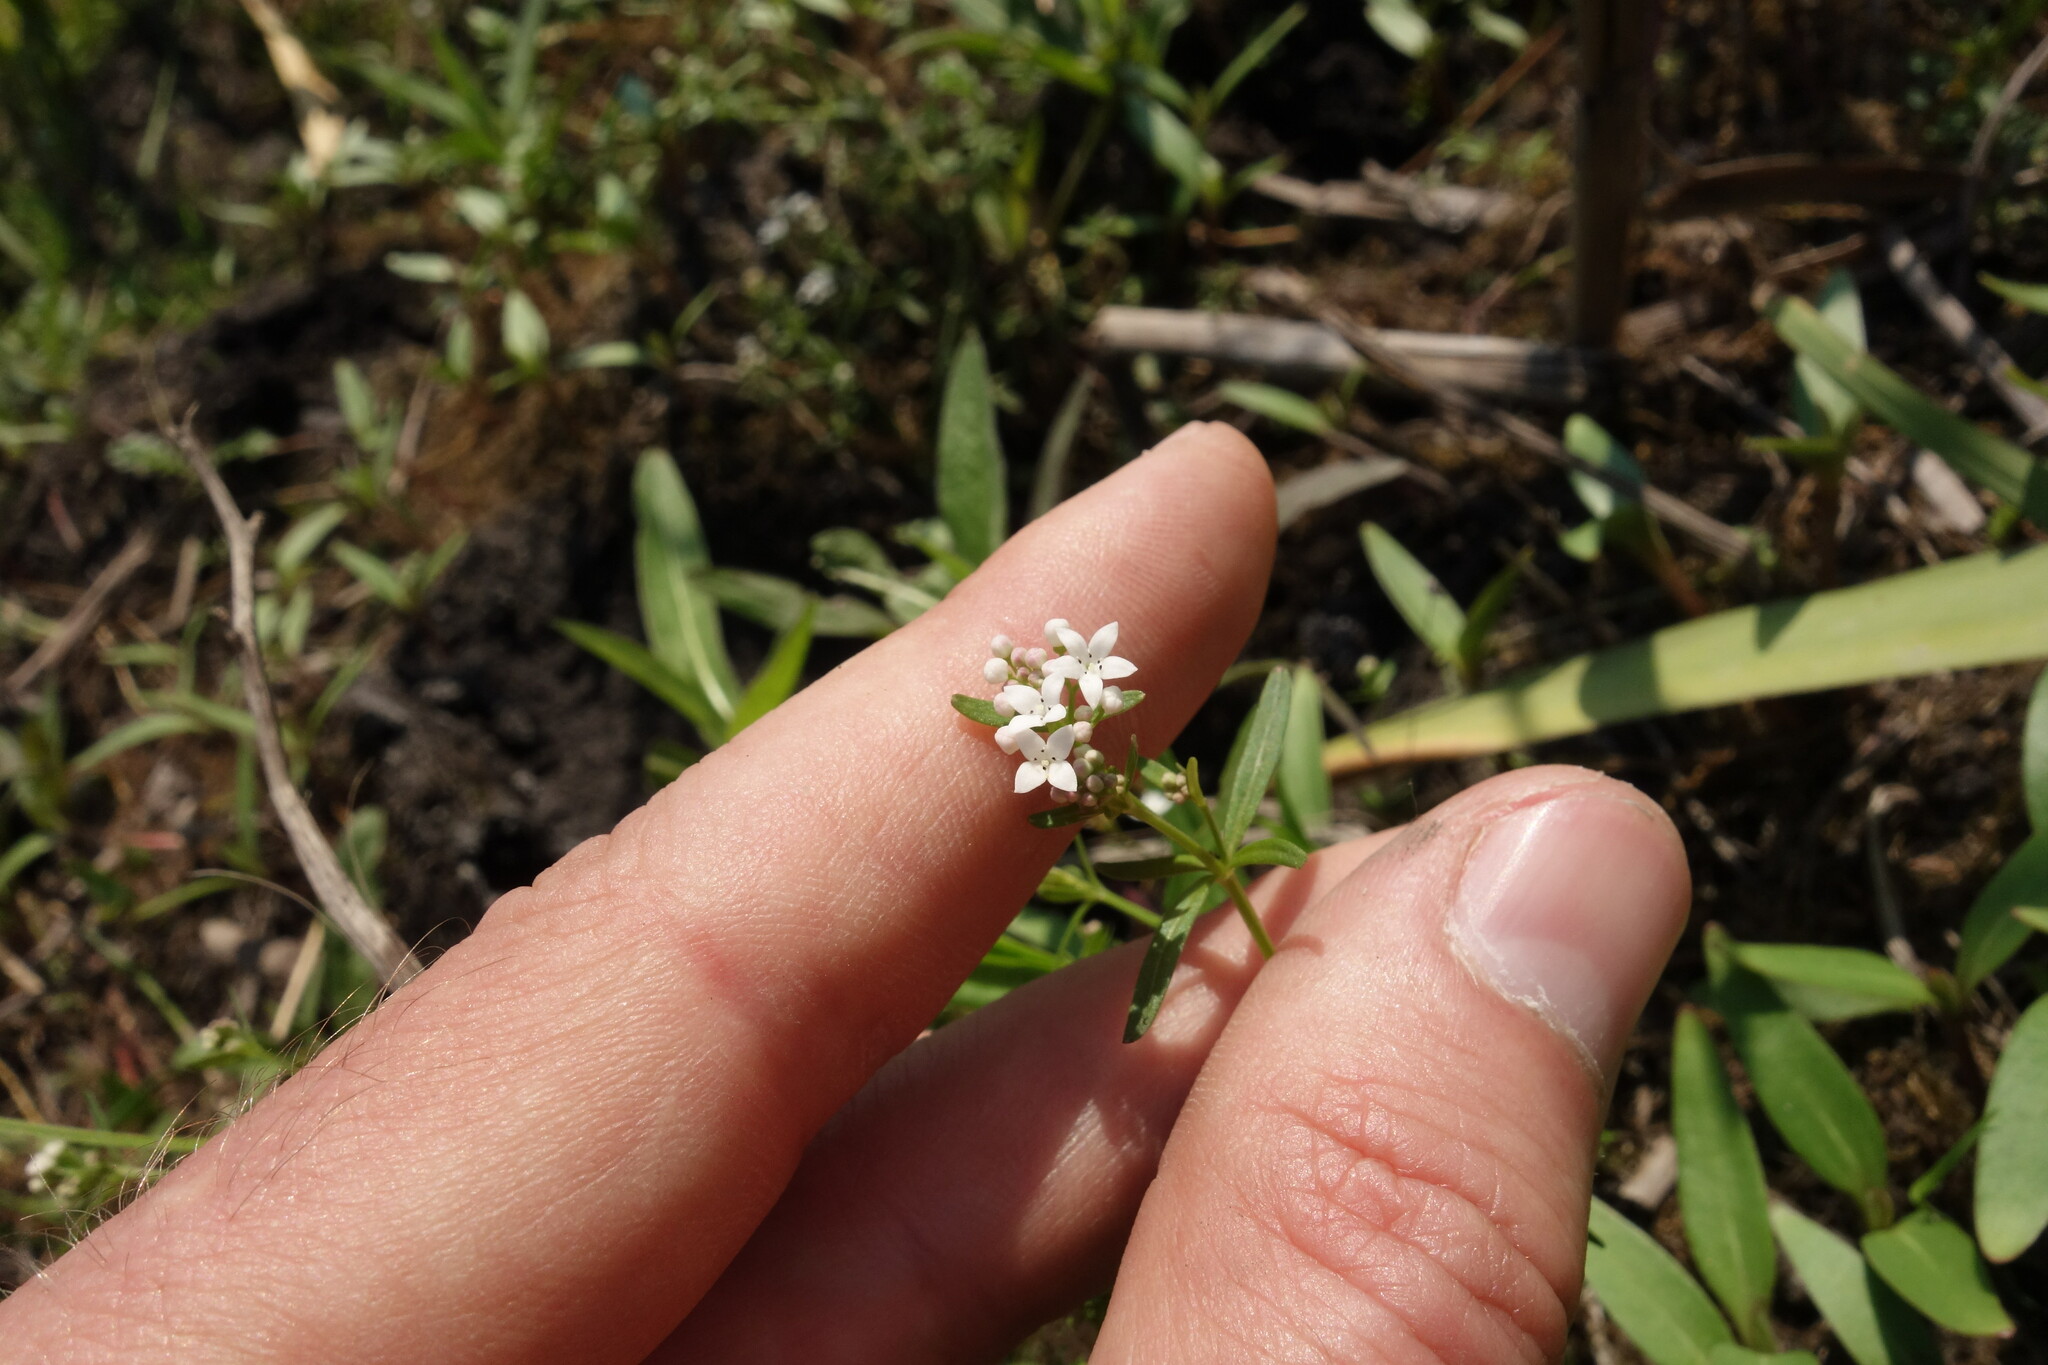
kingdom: Plantae
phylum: Tracheophyta
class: Magnoliopsida
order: Gentianales
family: Rubiaceae
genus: Galium
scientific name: Galium palustre
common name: Common marsh-bedstraw
